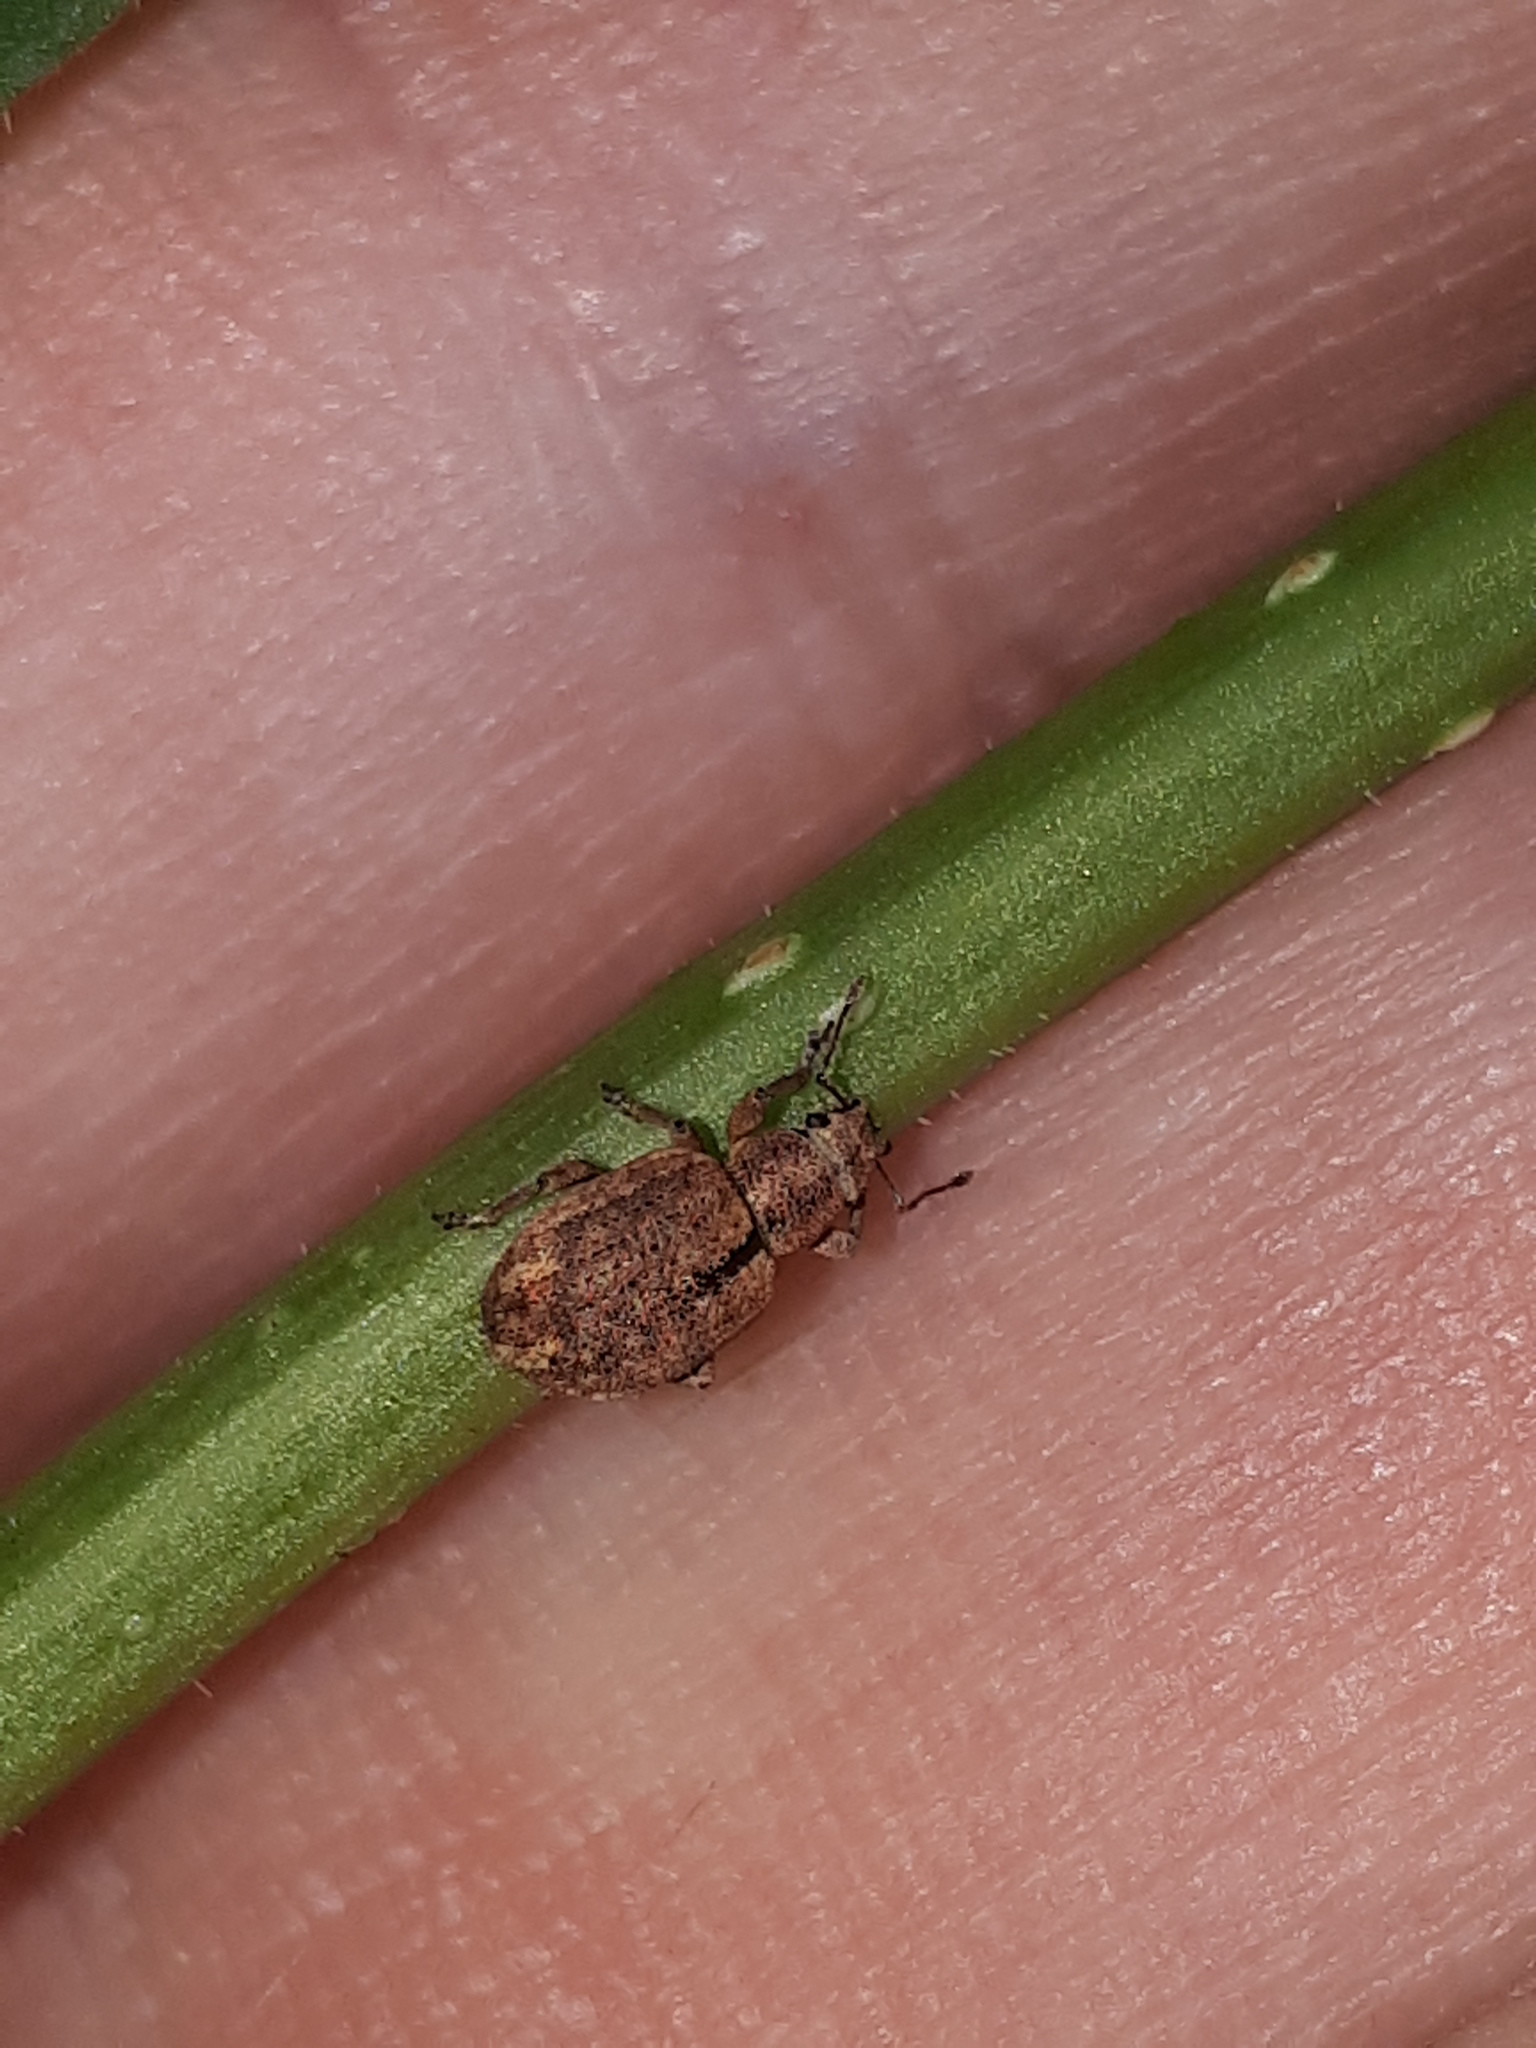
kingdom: Animalia
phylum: Arthropoda
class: Insecta
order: Coleoptera
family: Curculionidae
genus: Strophosoma
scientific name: Strophosoma melanogrammum
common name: Weevil
